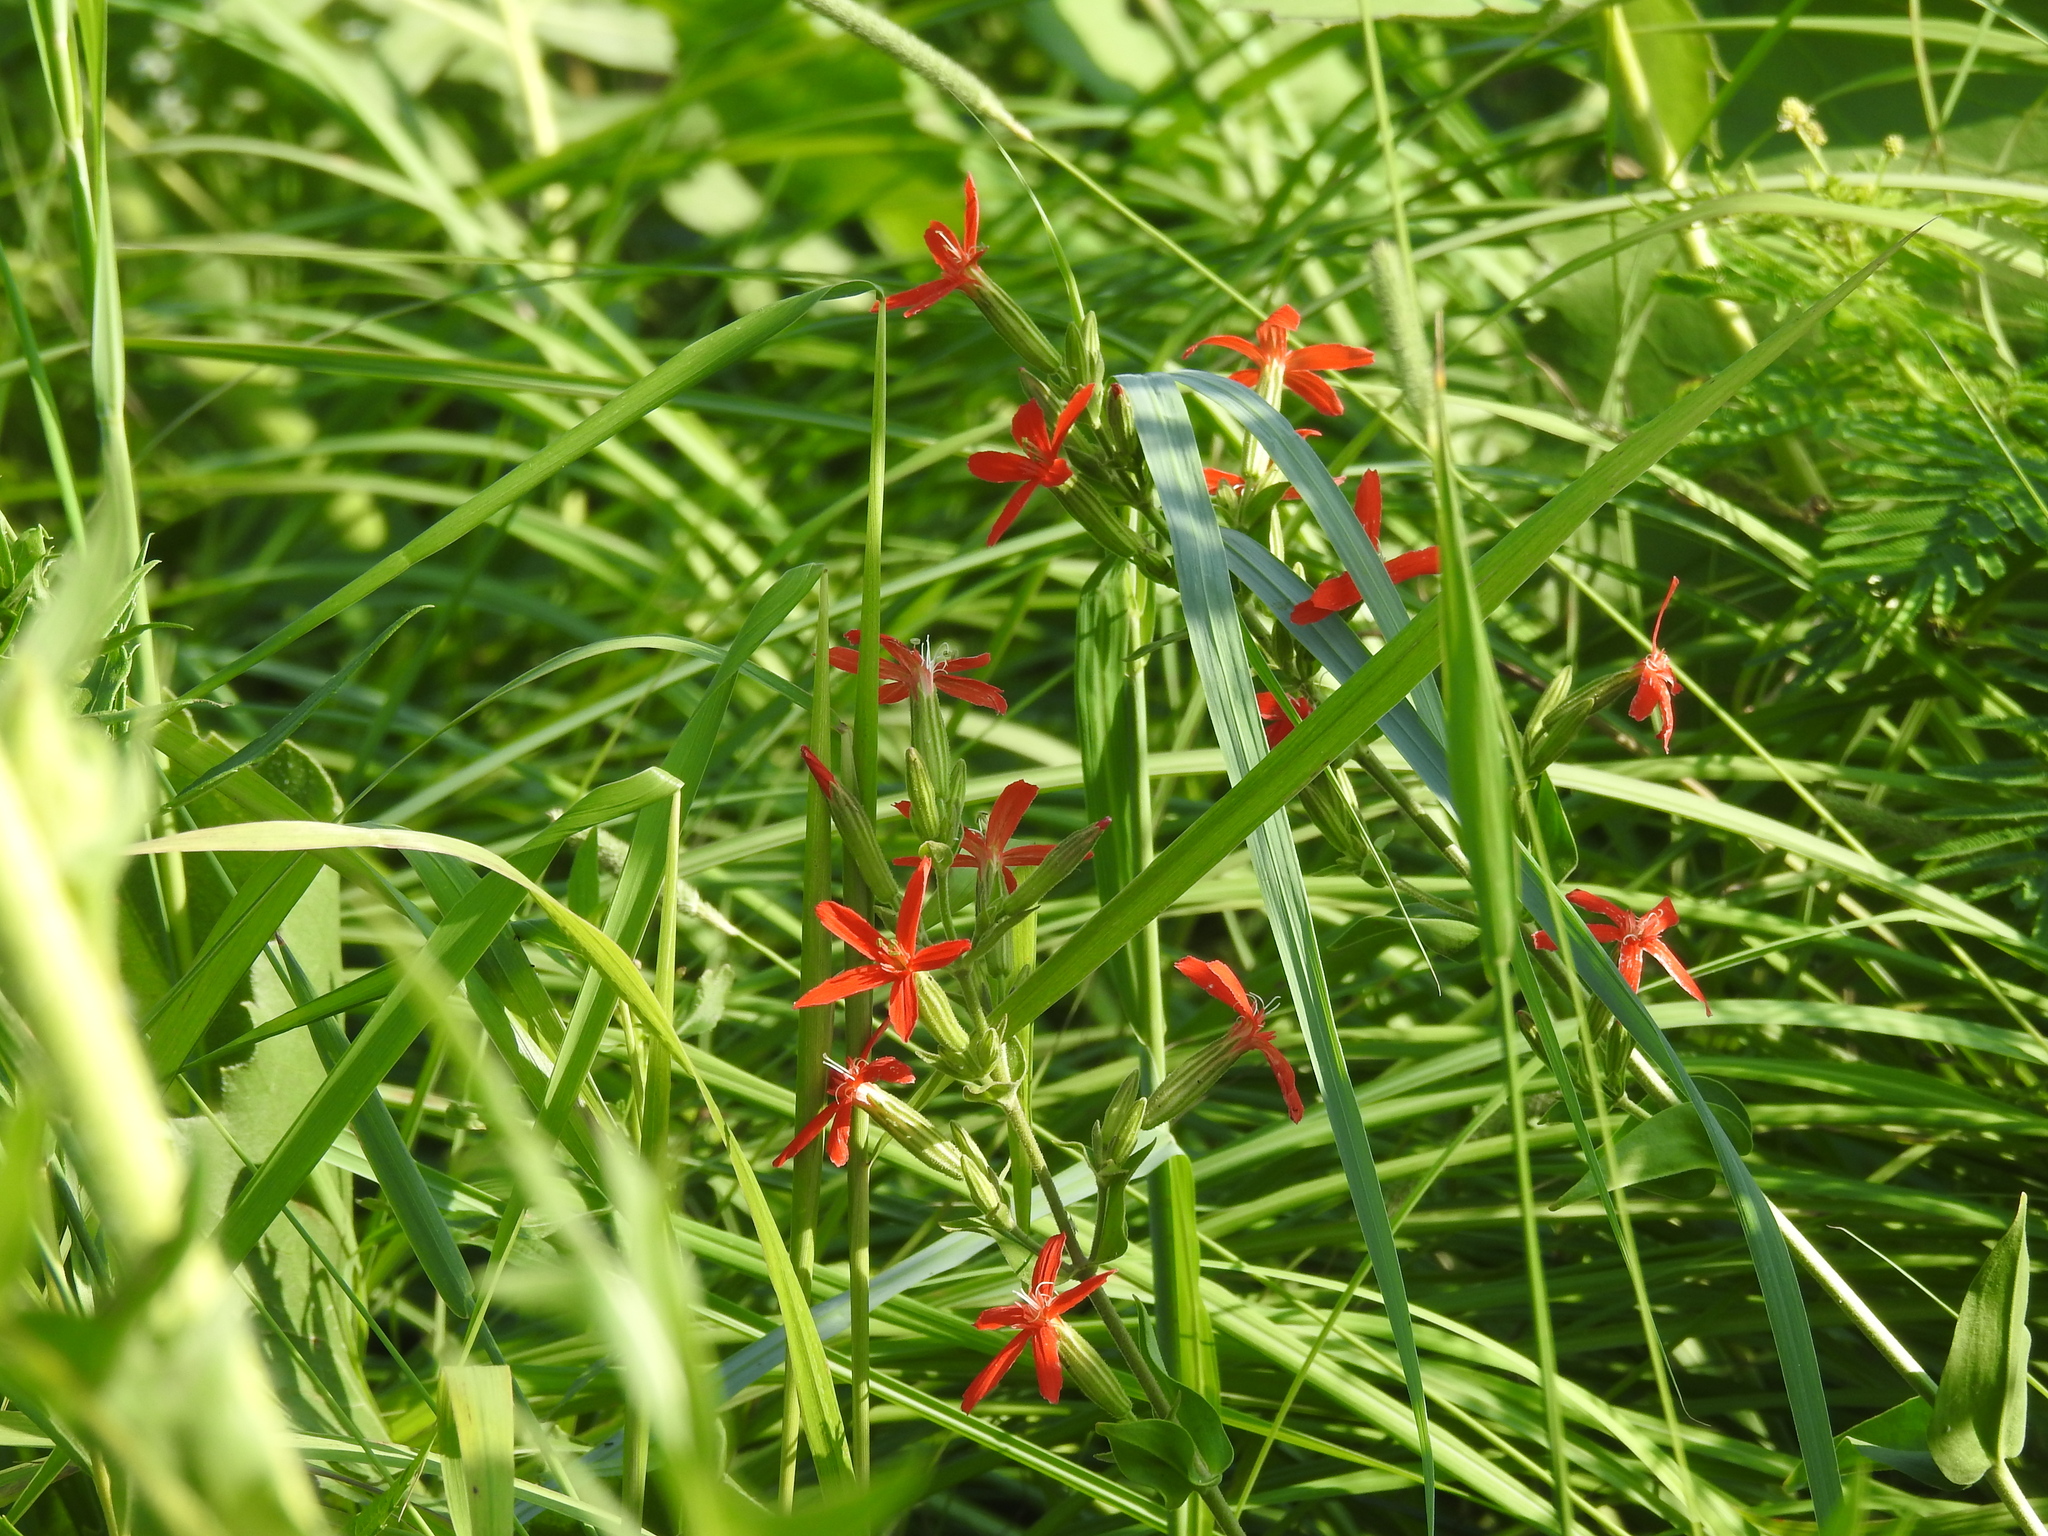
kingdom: Plantae
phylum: Tracheophyta
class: Magnoliopsida
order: Caryophyllales
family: Caryophyllaceae
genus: Silene
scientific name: Silene regia
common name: Royal catchfly
